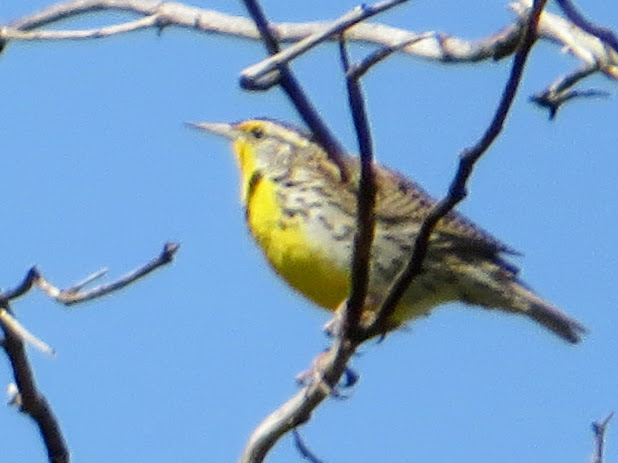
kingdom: Animalia
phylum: Chordata
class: Aves
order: Passeriformes
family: Icteridae
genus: Sturnella
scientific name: Sturnella neglecta
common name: Western meadowlark
